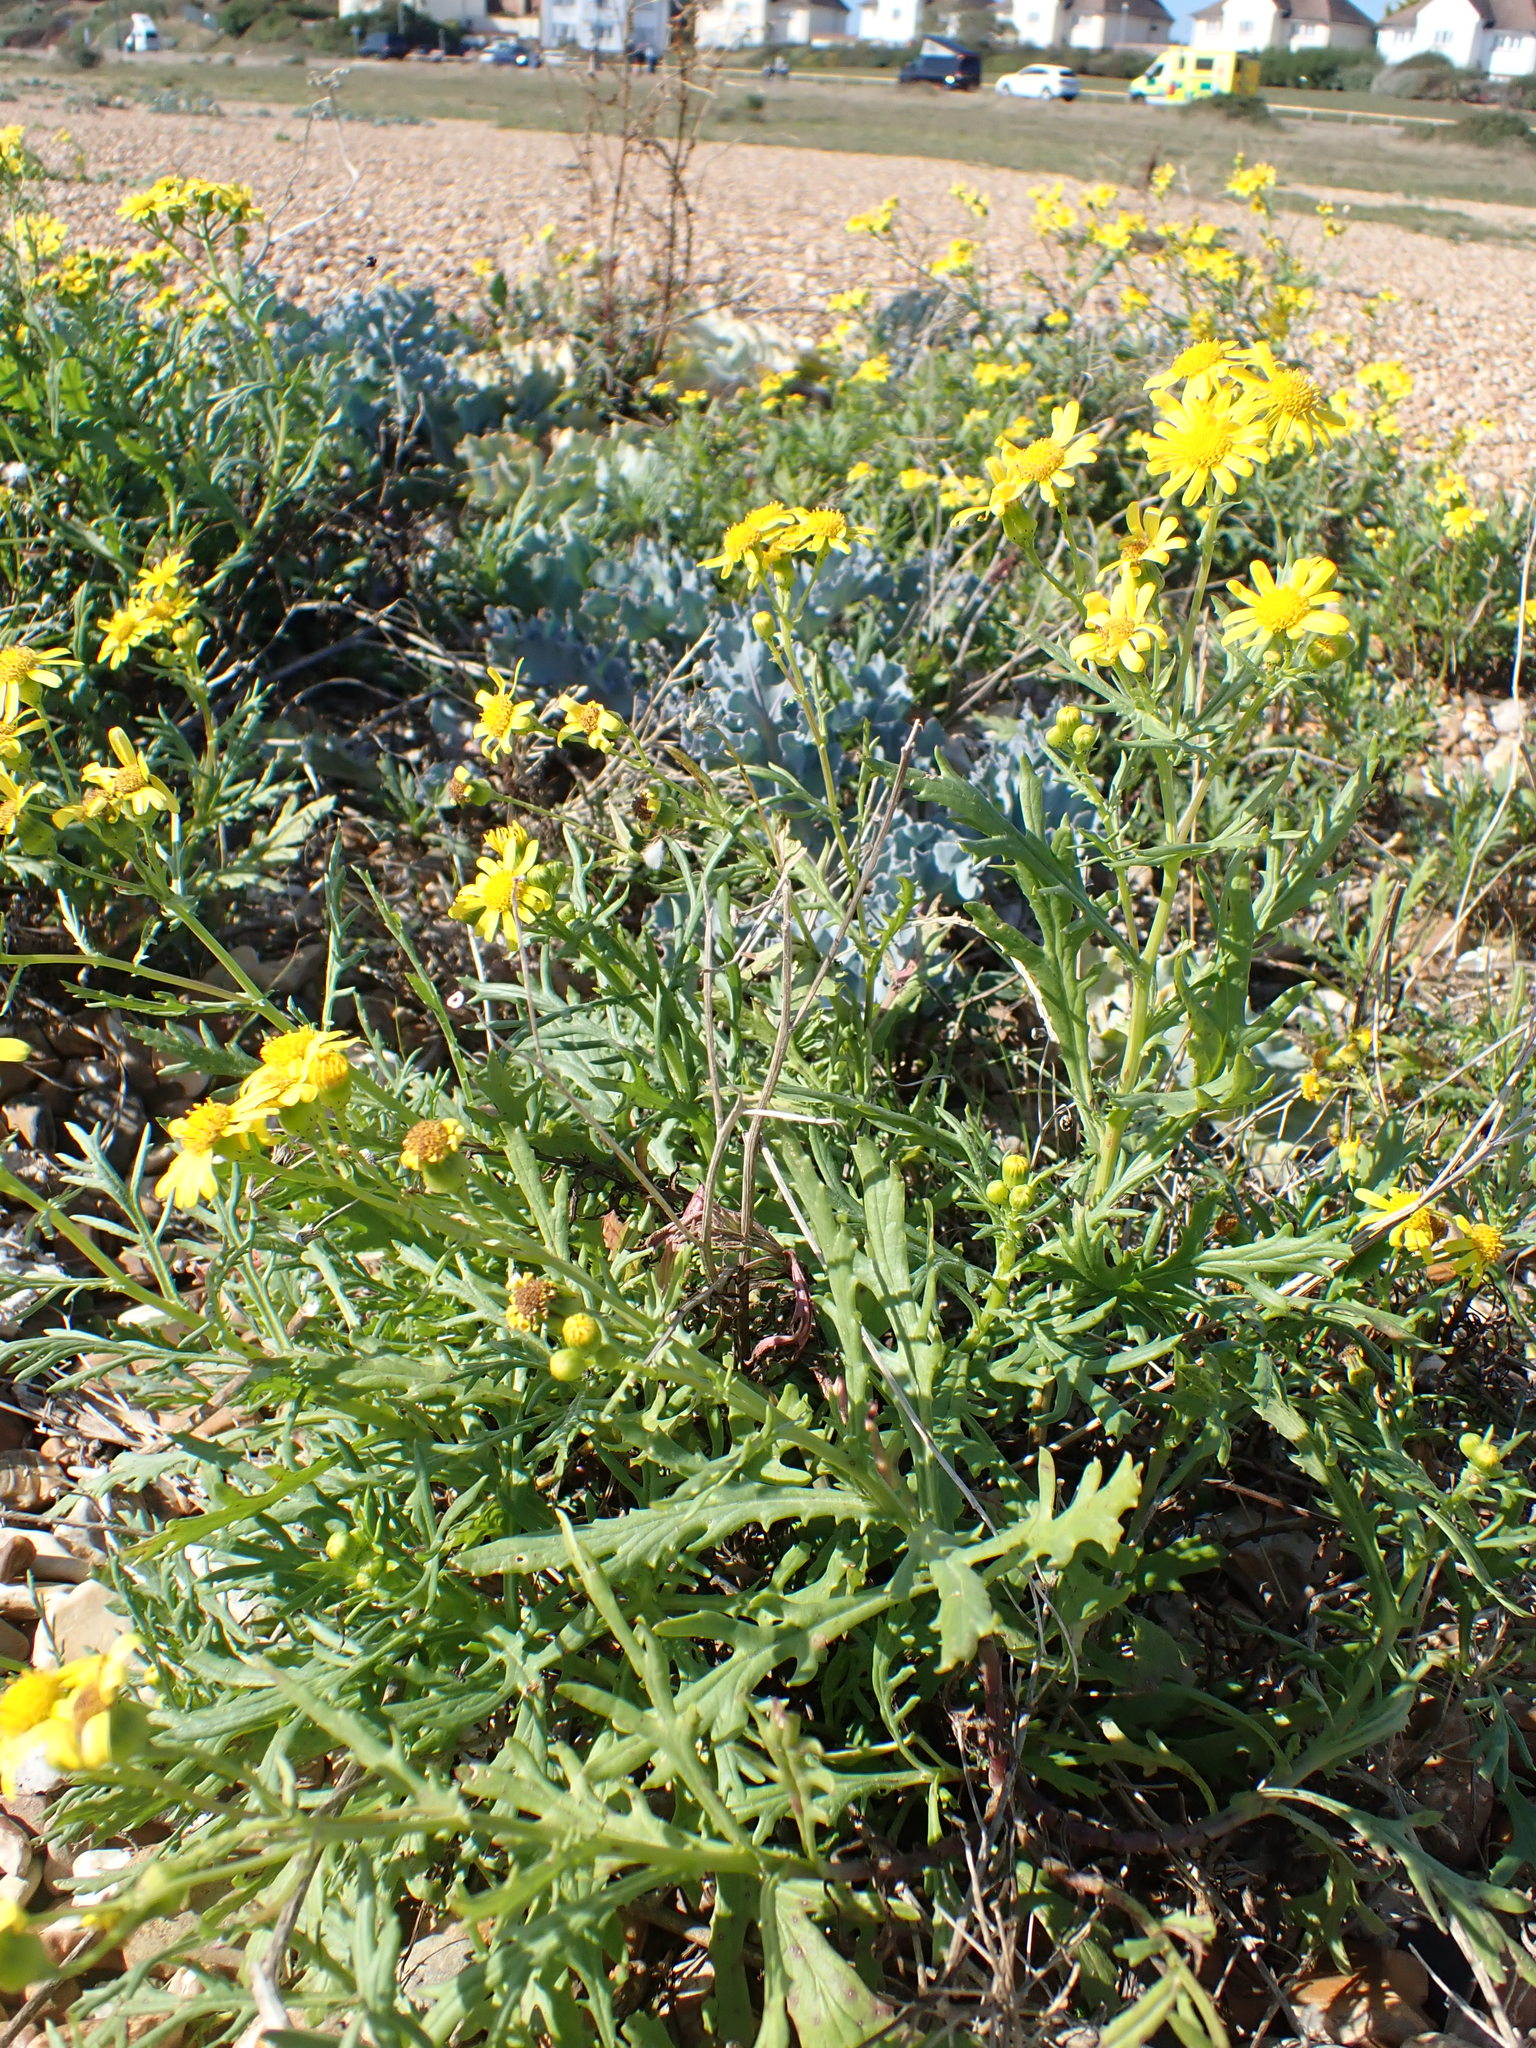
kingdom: Plantae
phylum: Tracheophyta
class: Magnoliopsida
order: Asterales
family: Asteraceae
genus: Senecio
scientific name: Senecio squalidus
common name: Oxford ragwort
